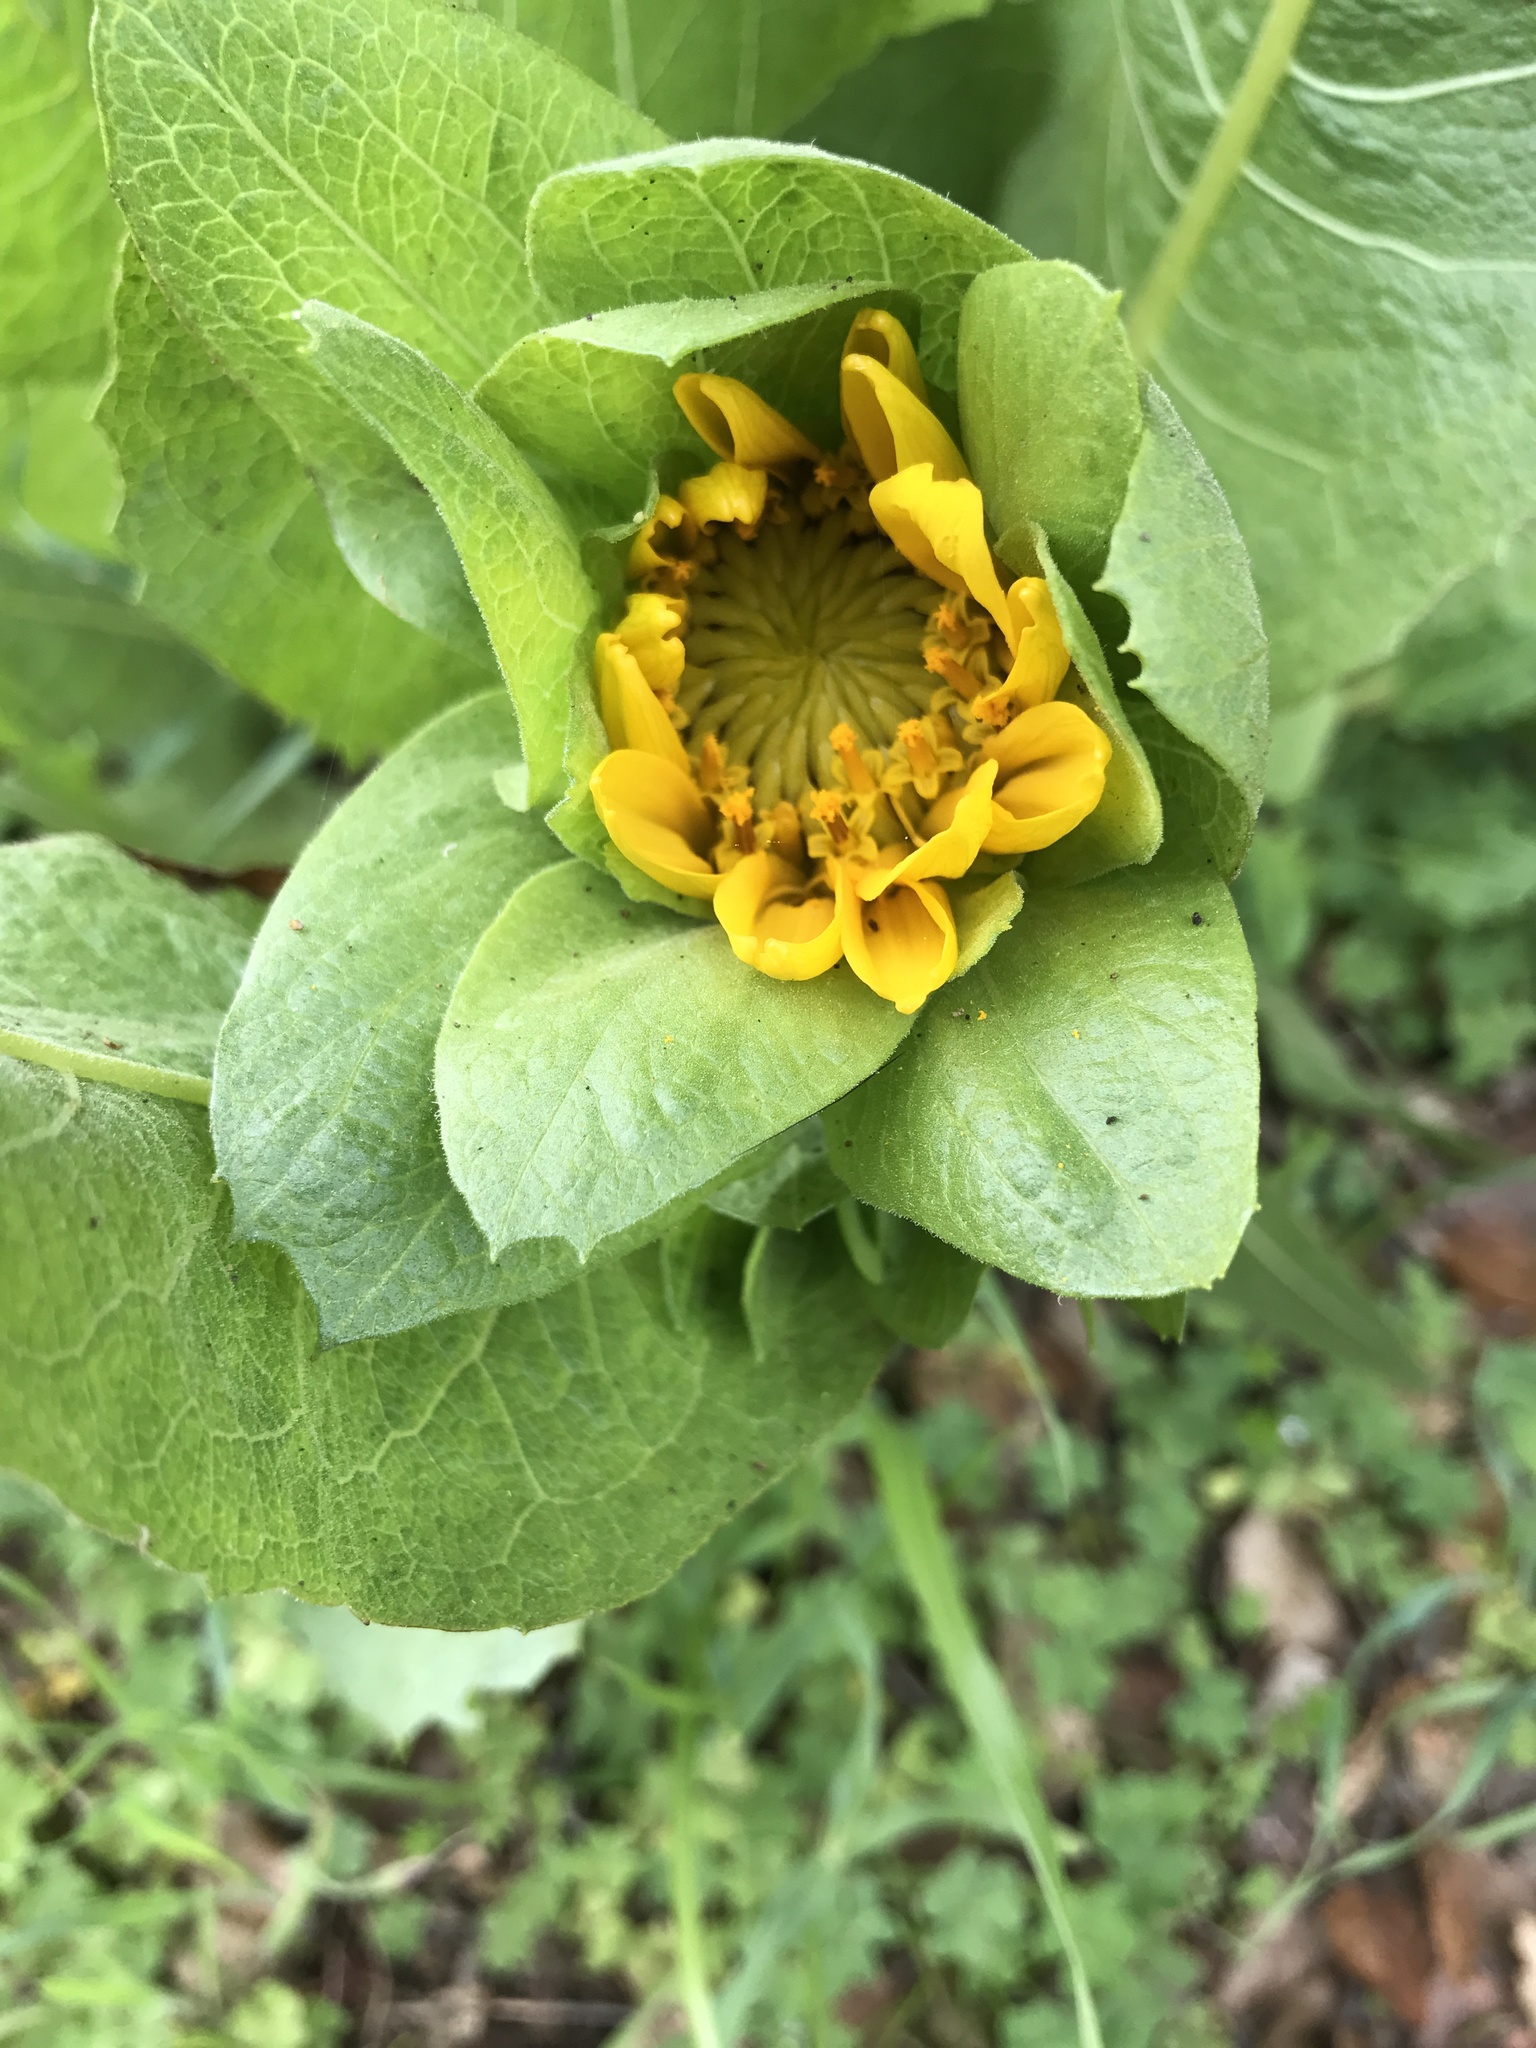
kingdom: Plantae
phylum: Tracheophyta
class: Magnoliopsida
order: Asterales
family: Asteraceae
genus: Wyethia
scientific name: Wyethia glabra
